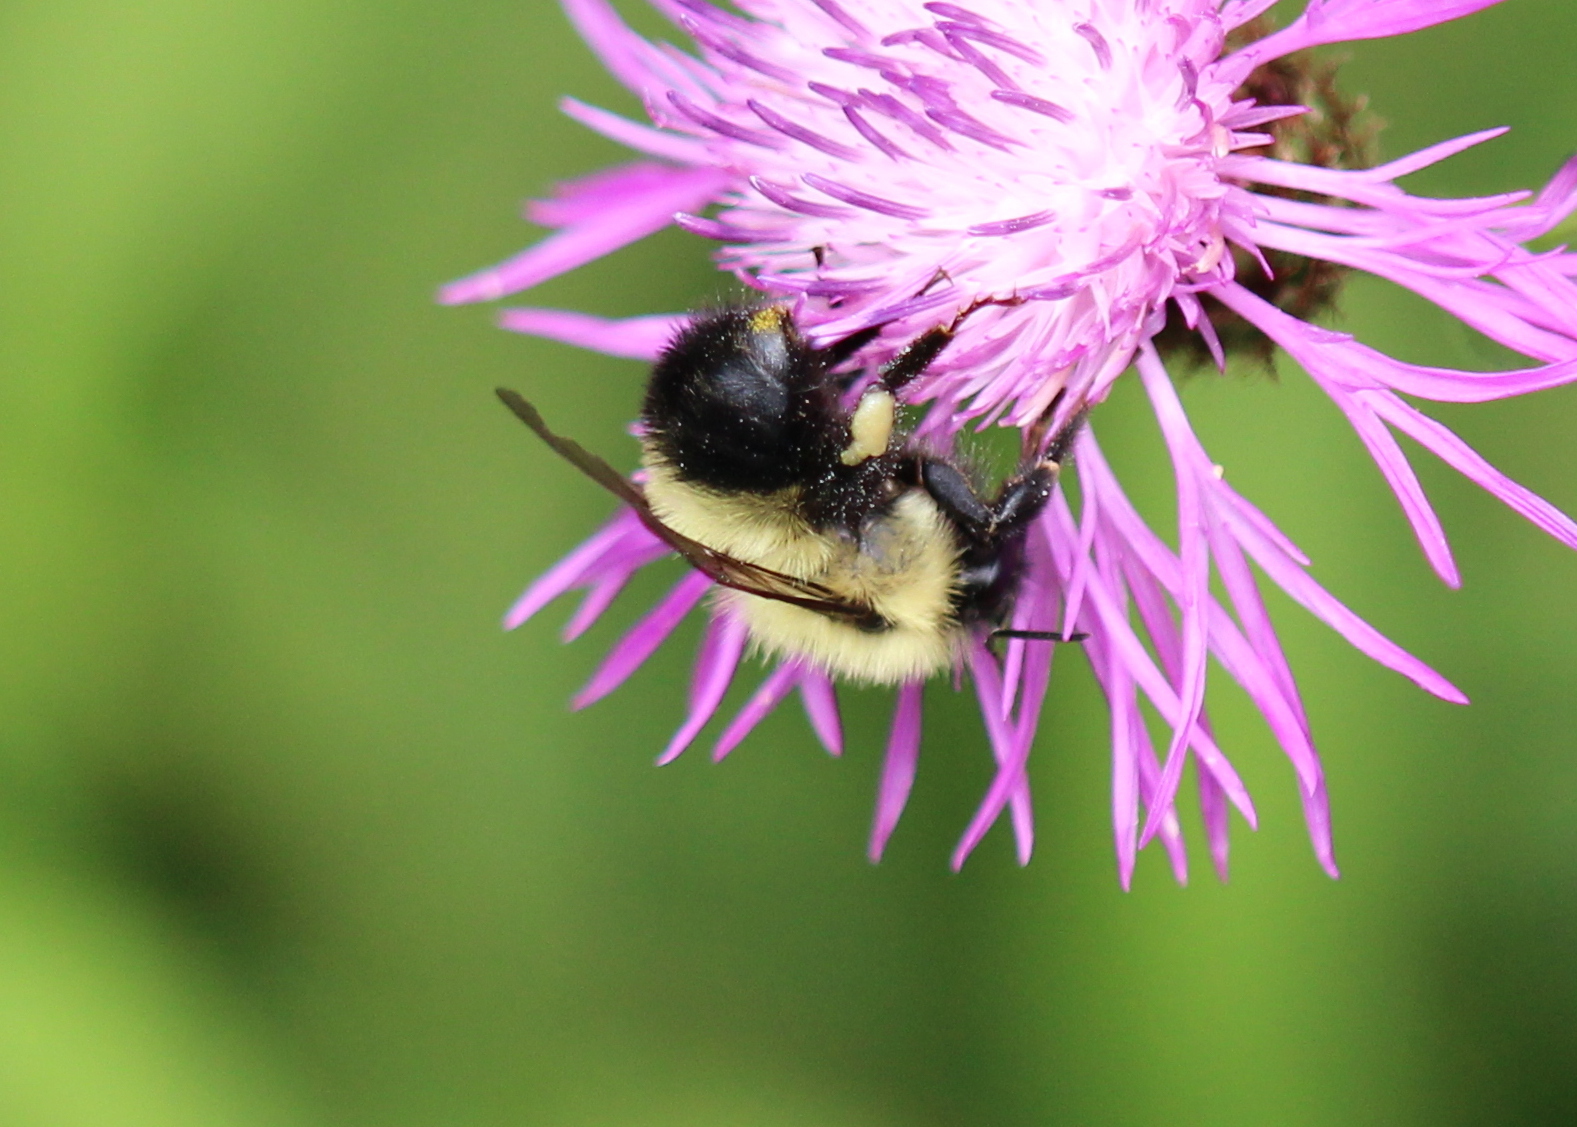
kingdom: Animalia
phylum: Arthropoda
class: Insecta
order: Hymenoptera
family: Apidae
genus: Pyrobombus
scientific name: Pyrobombus
